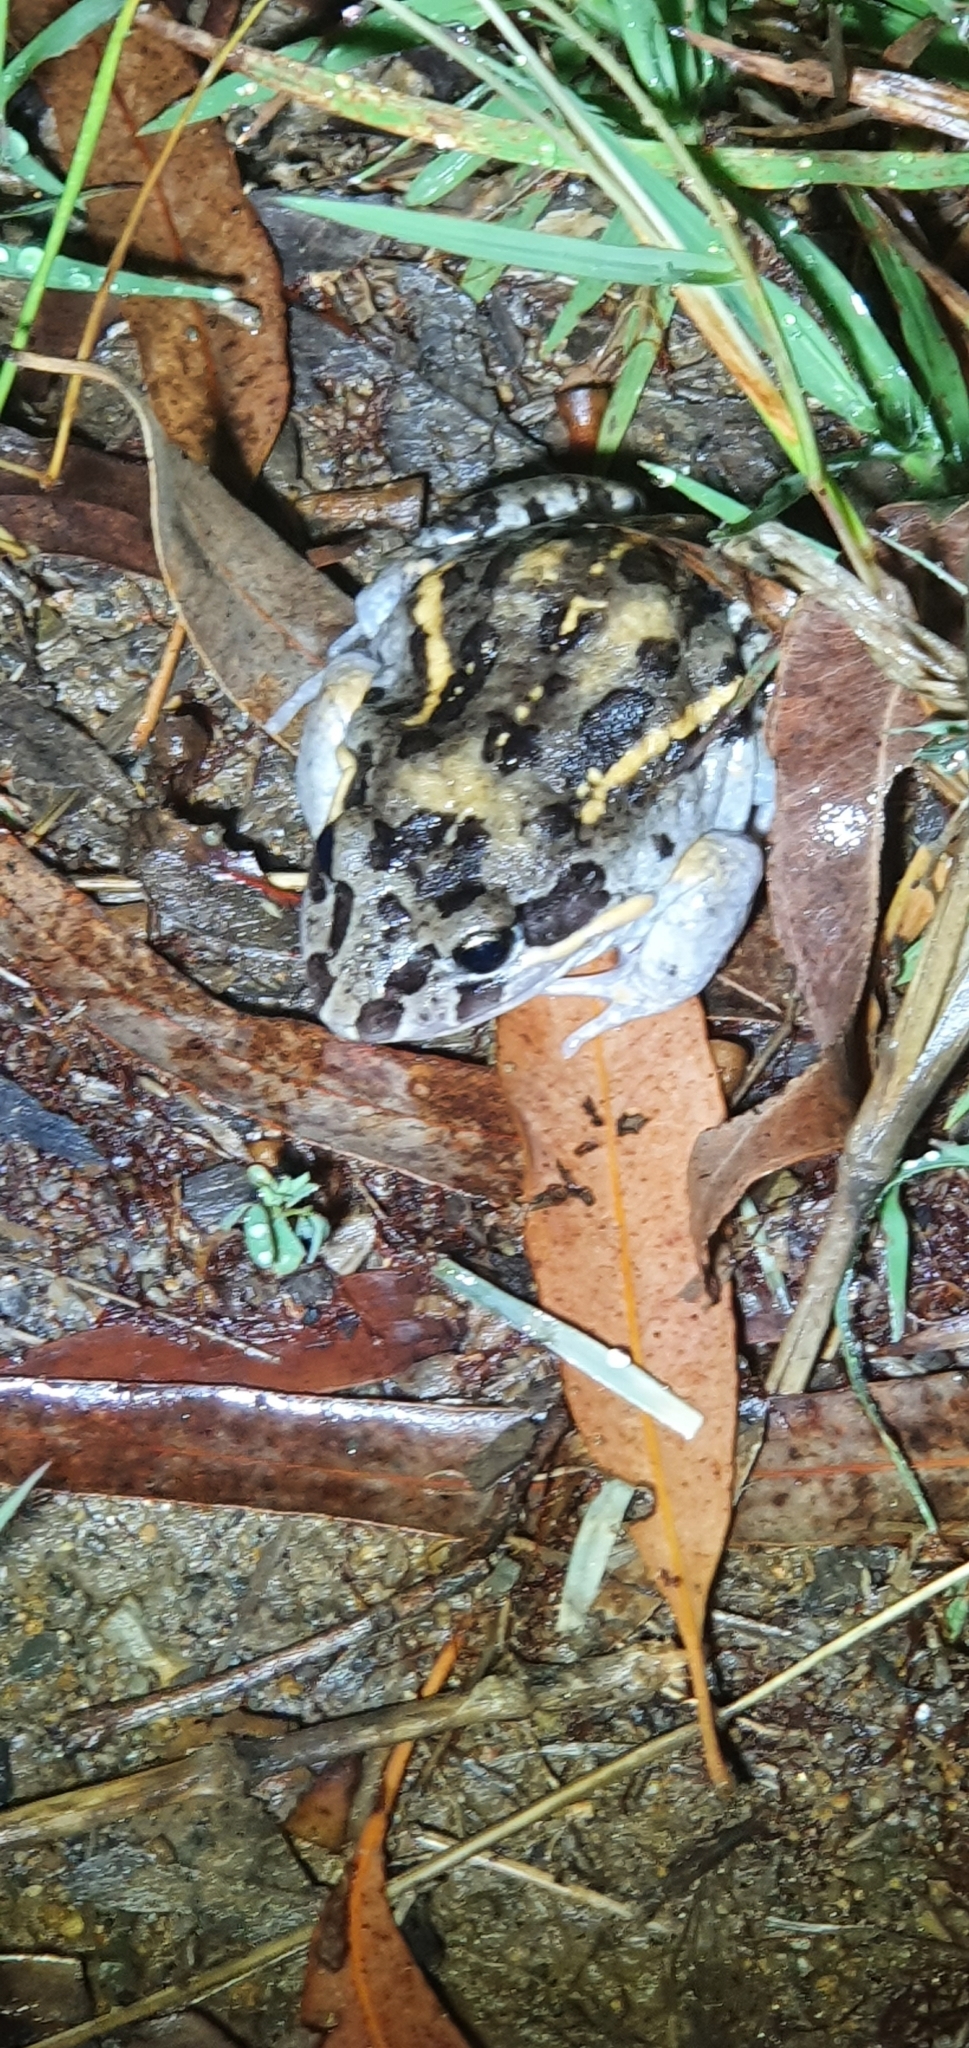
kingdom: Animalia
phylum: Chordata
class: Amphibia
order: Anura
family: Limnodynastidae
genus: Limnodynastes
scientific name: Limnodynastes salmini
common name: Salmon-striped frog
